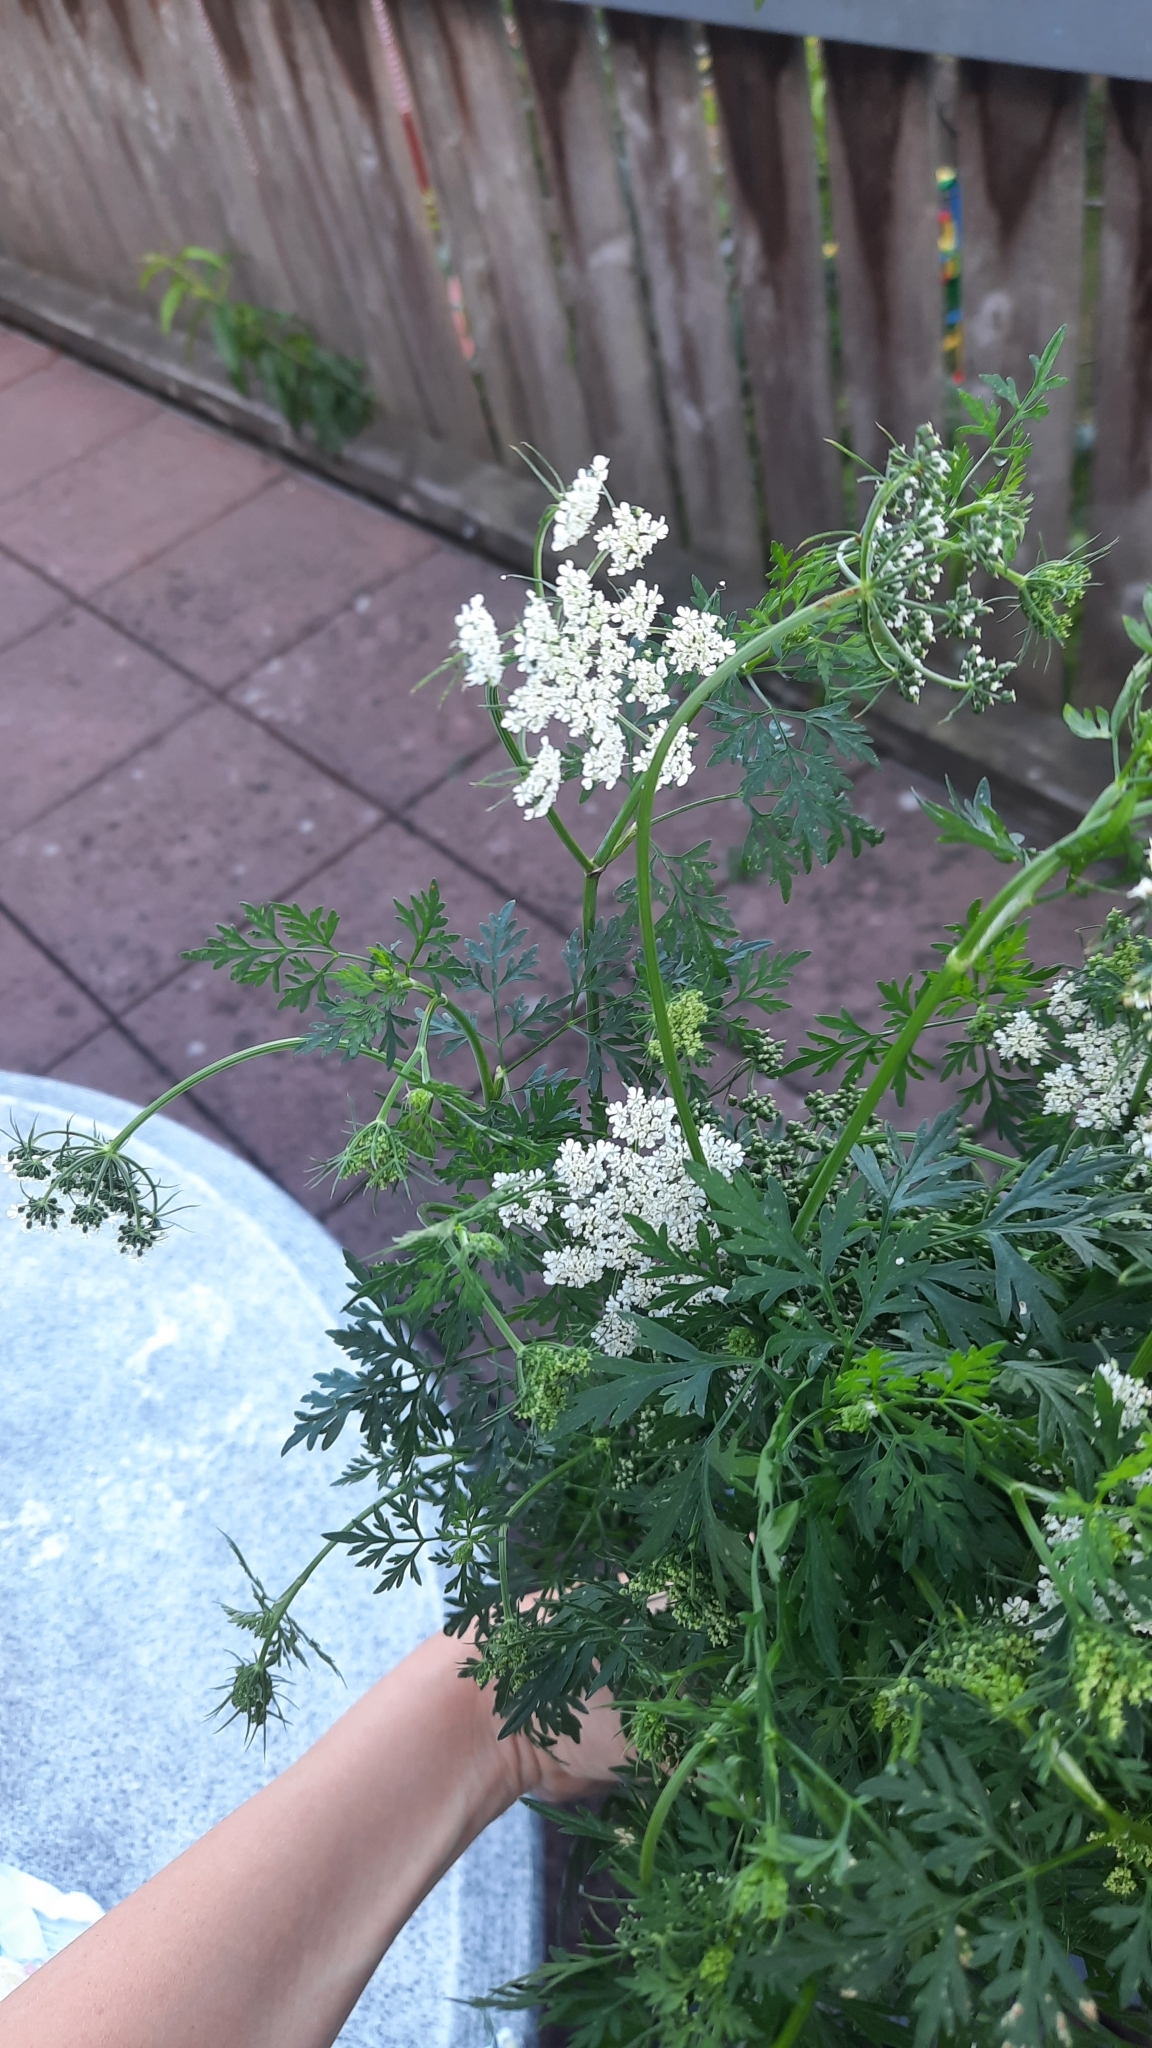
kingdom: Plantae
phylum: Tracheophyta
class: Magnoliopsida
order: Apiales
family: Apiaceae
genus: Aethusa
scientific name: Aethusa cynapium
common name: Fool's parsley
